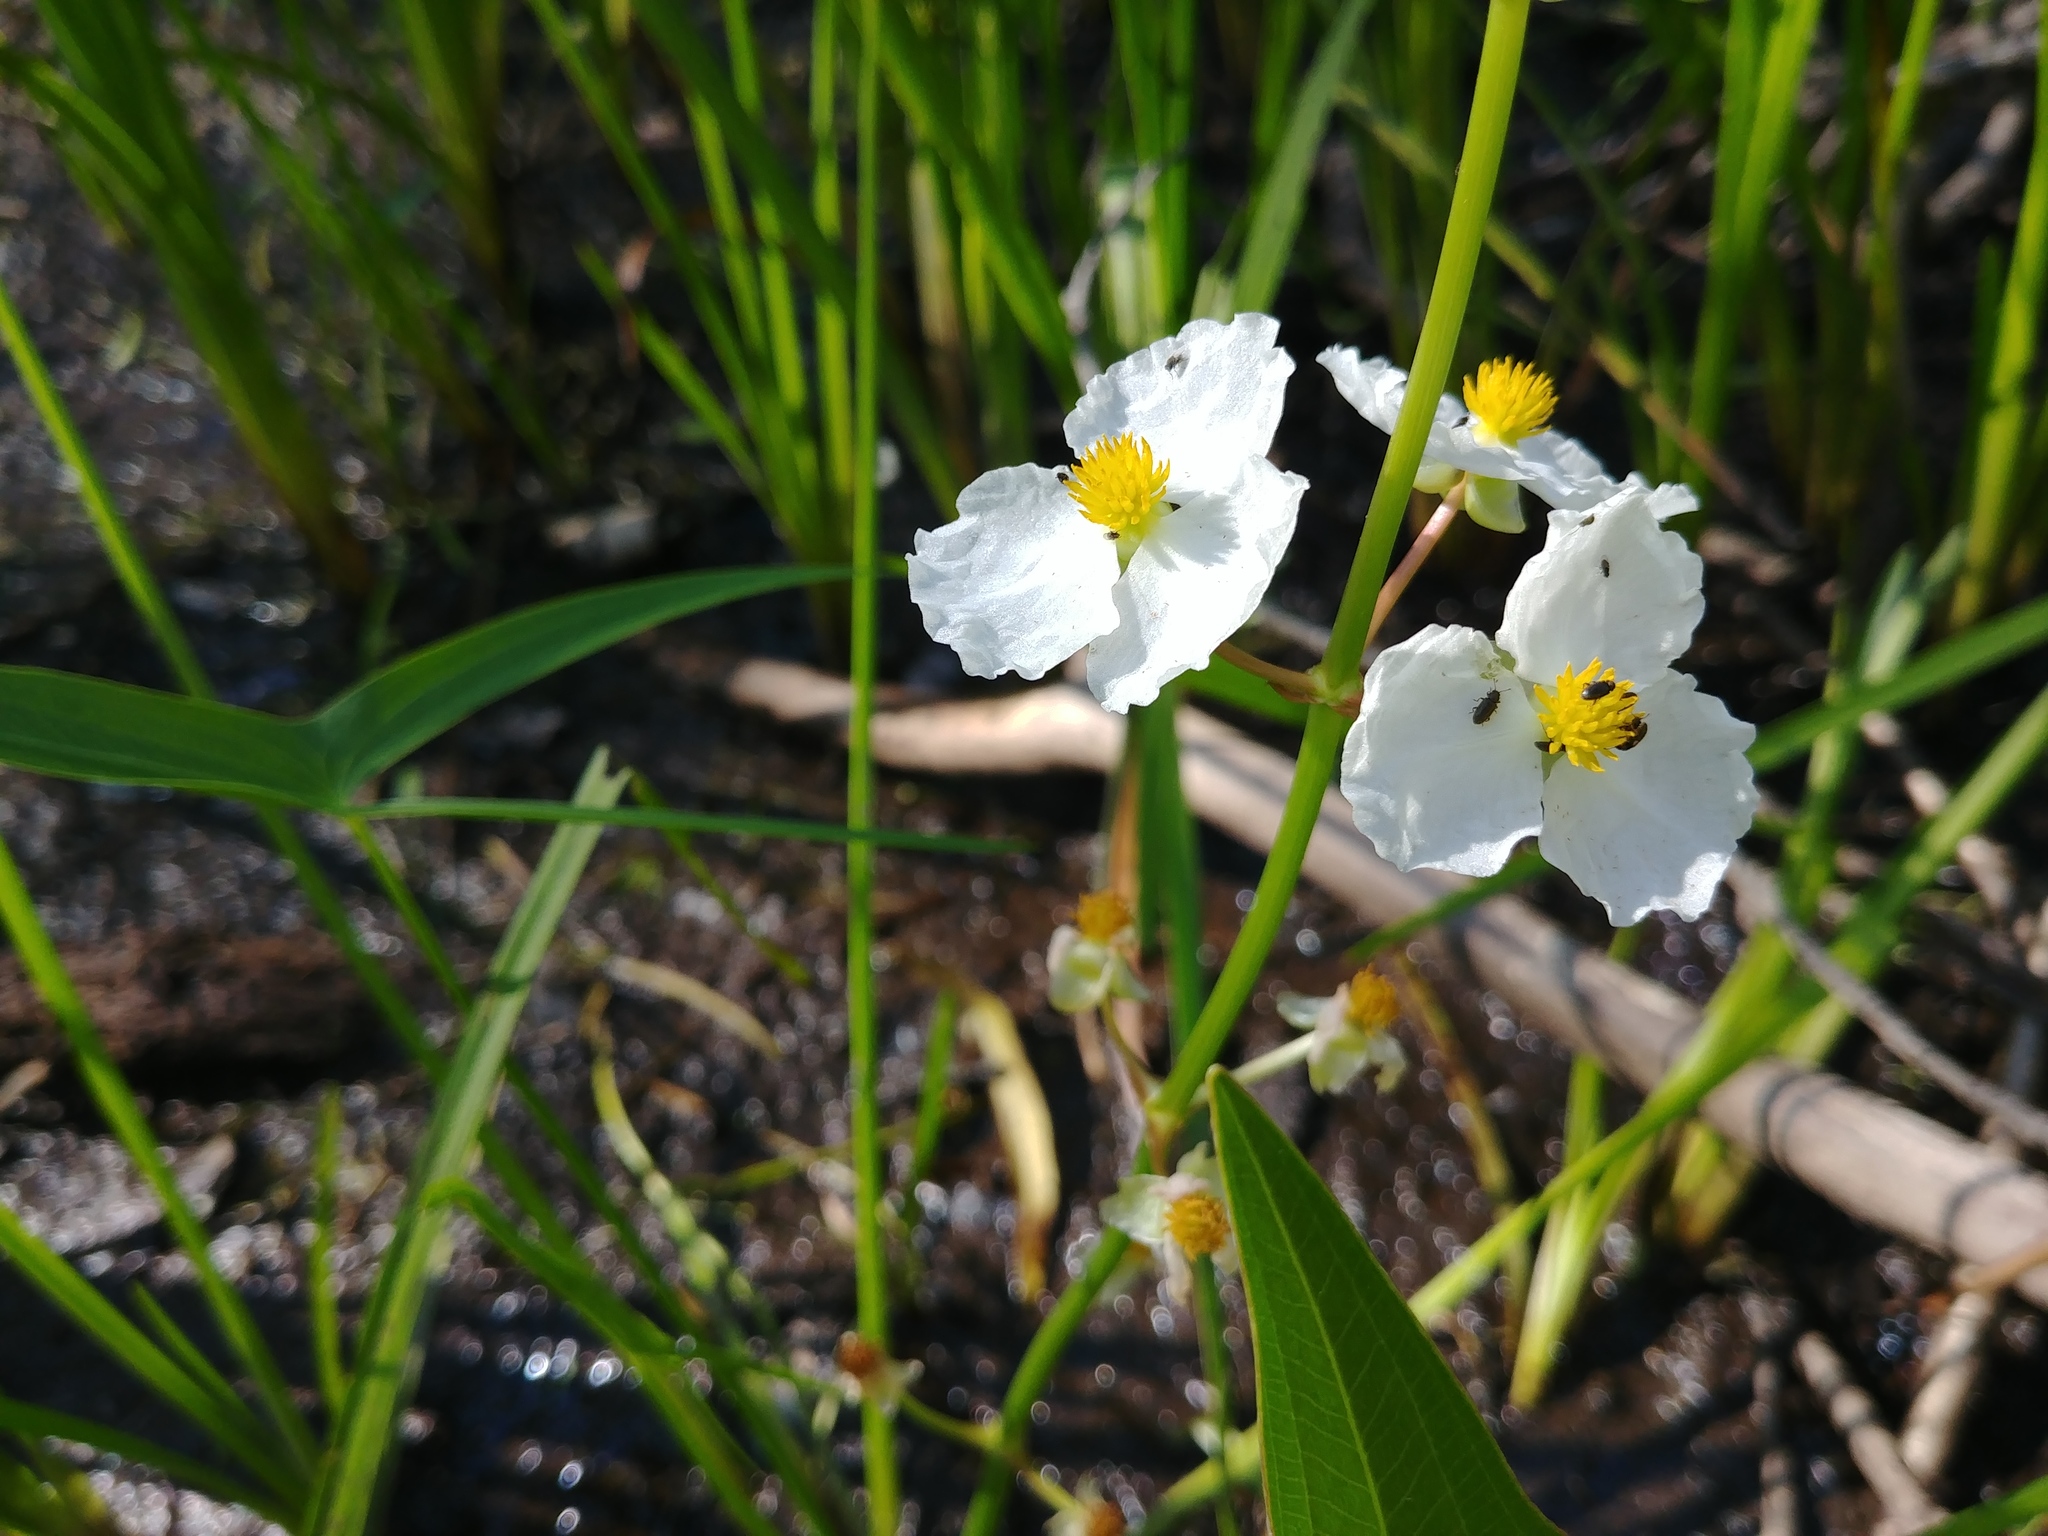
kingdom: Plantae
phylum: Tracheophyta
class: Liliopsida
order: Alismatales
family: Alismataceae
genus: Sagittaria
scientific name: Sagittaria latifolia
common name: Duck-potato
